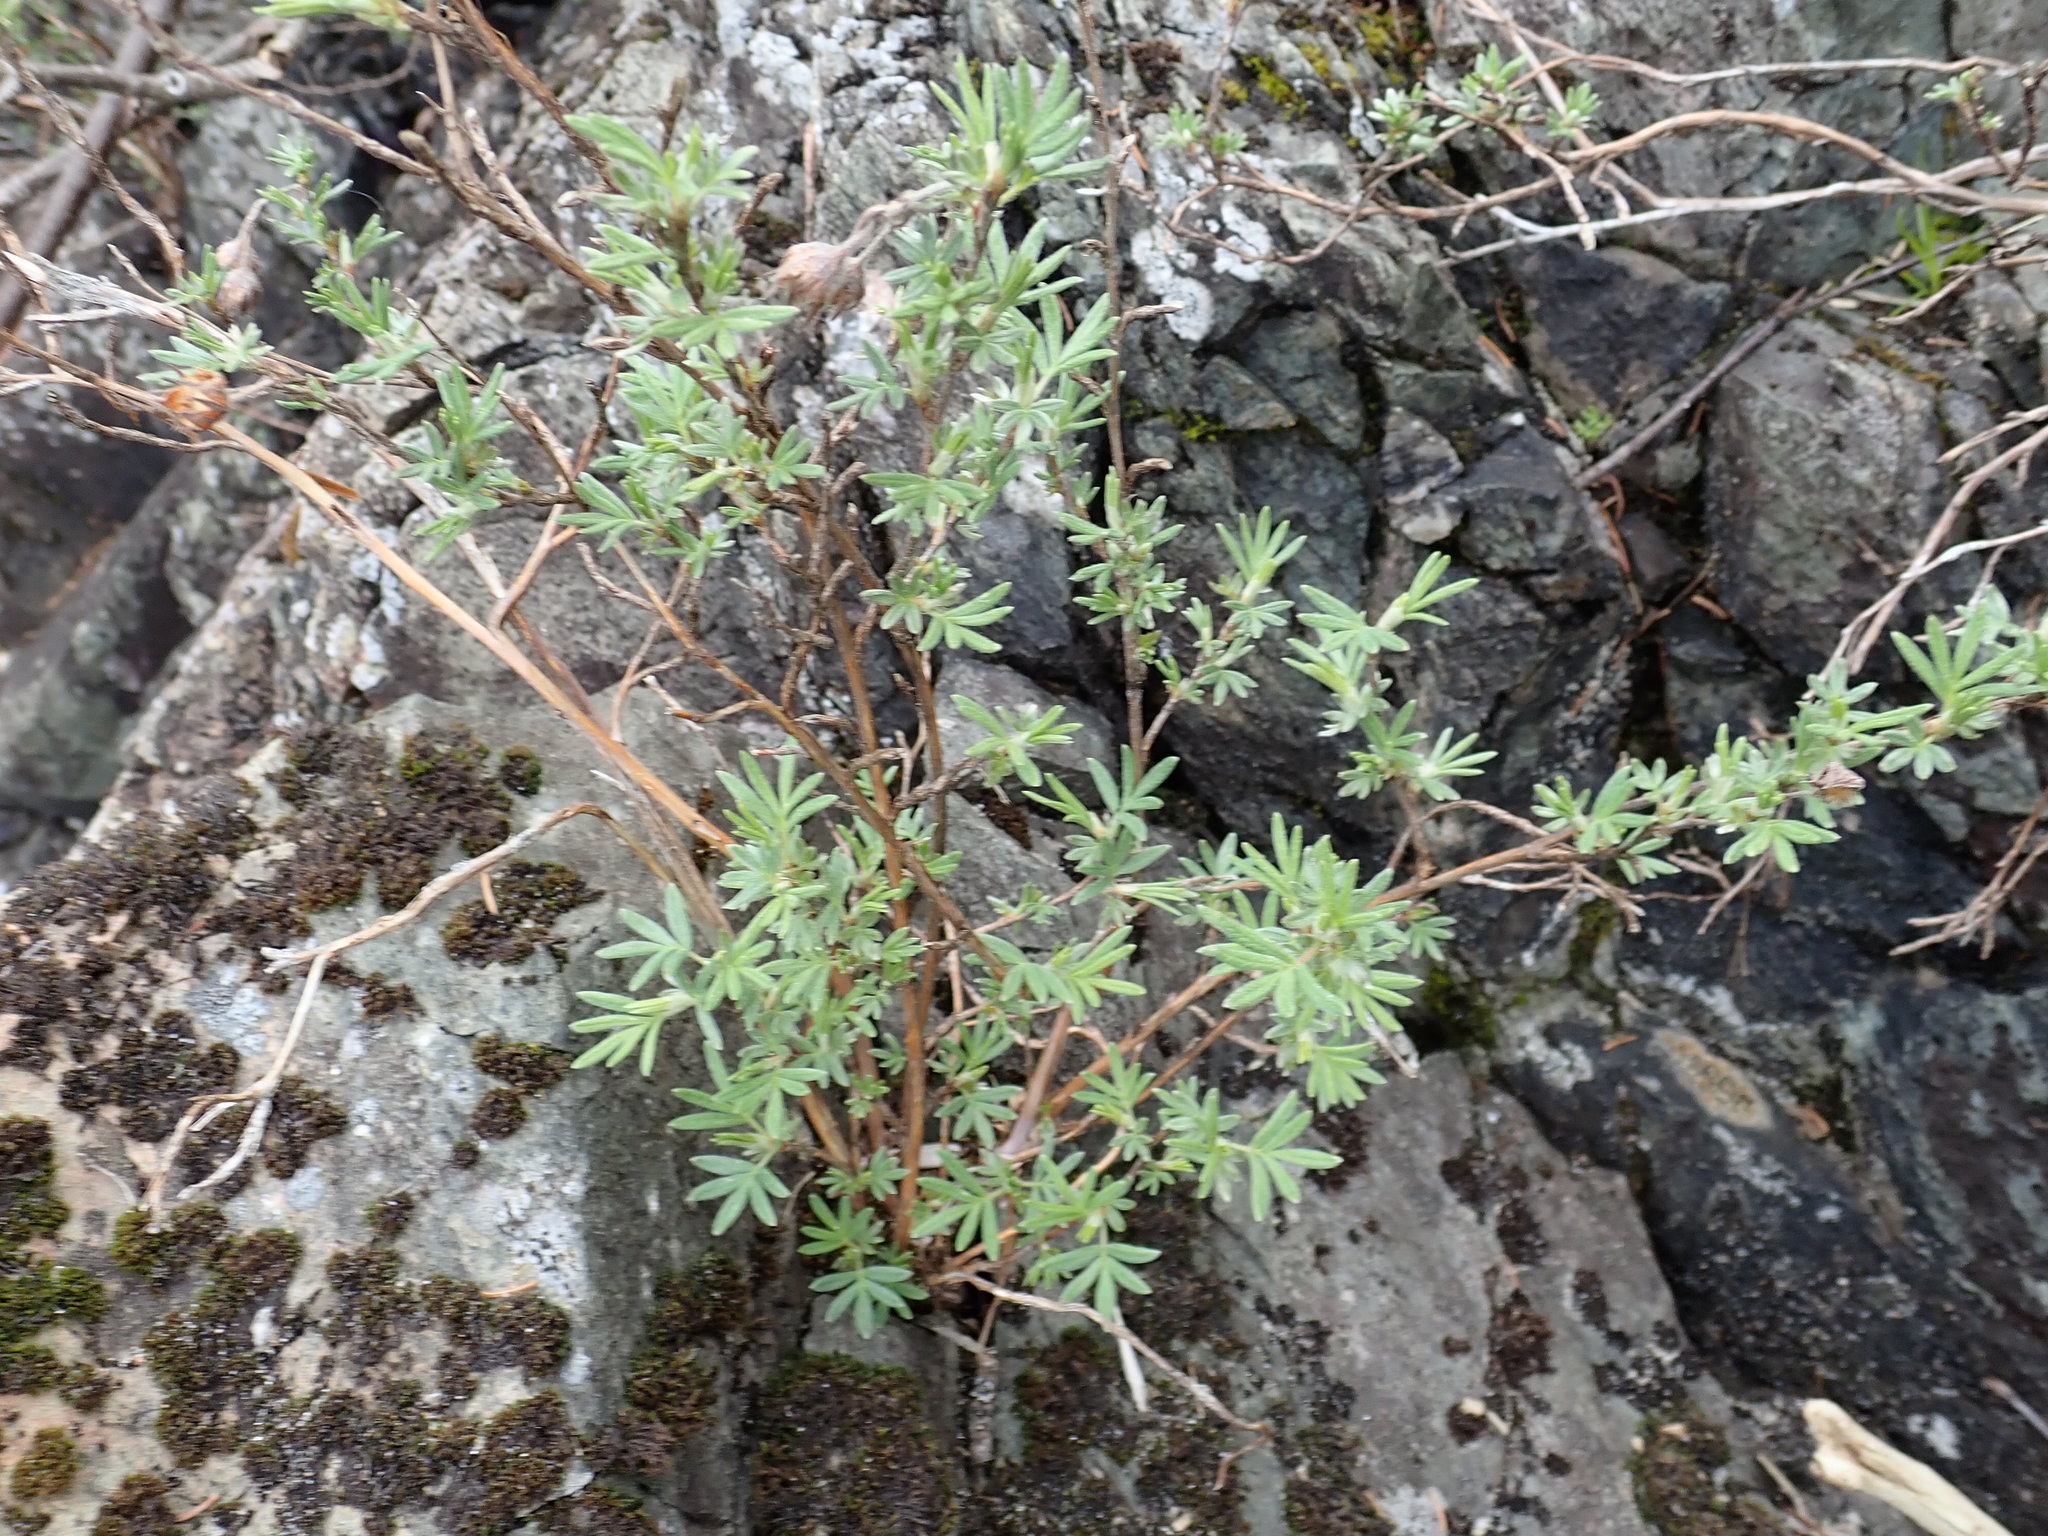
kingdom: Plantae
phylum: Tracheophyta
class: Magnoliopsida
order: Rosales
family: Rosaceae
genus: Dasiphora
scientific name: Dasiphora fruticosa
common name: Shrubby cinquefoil
